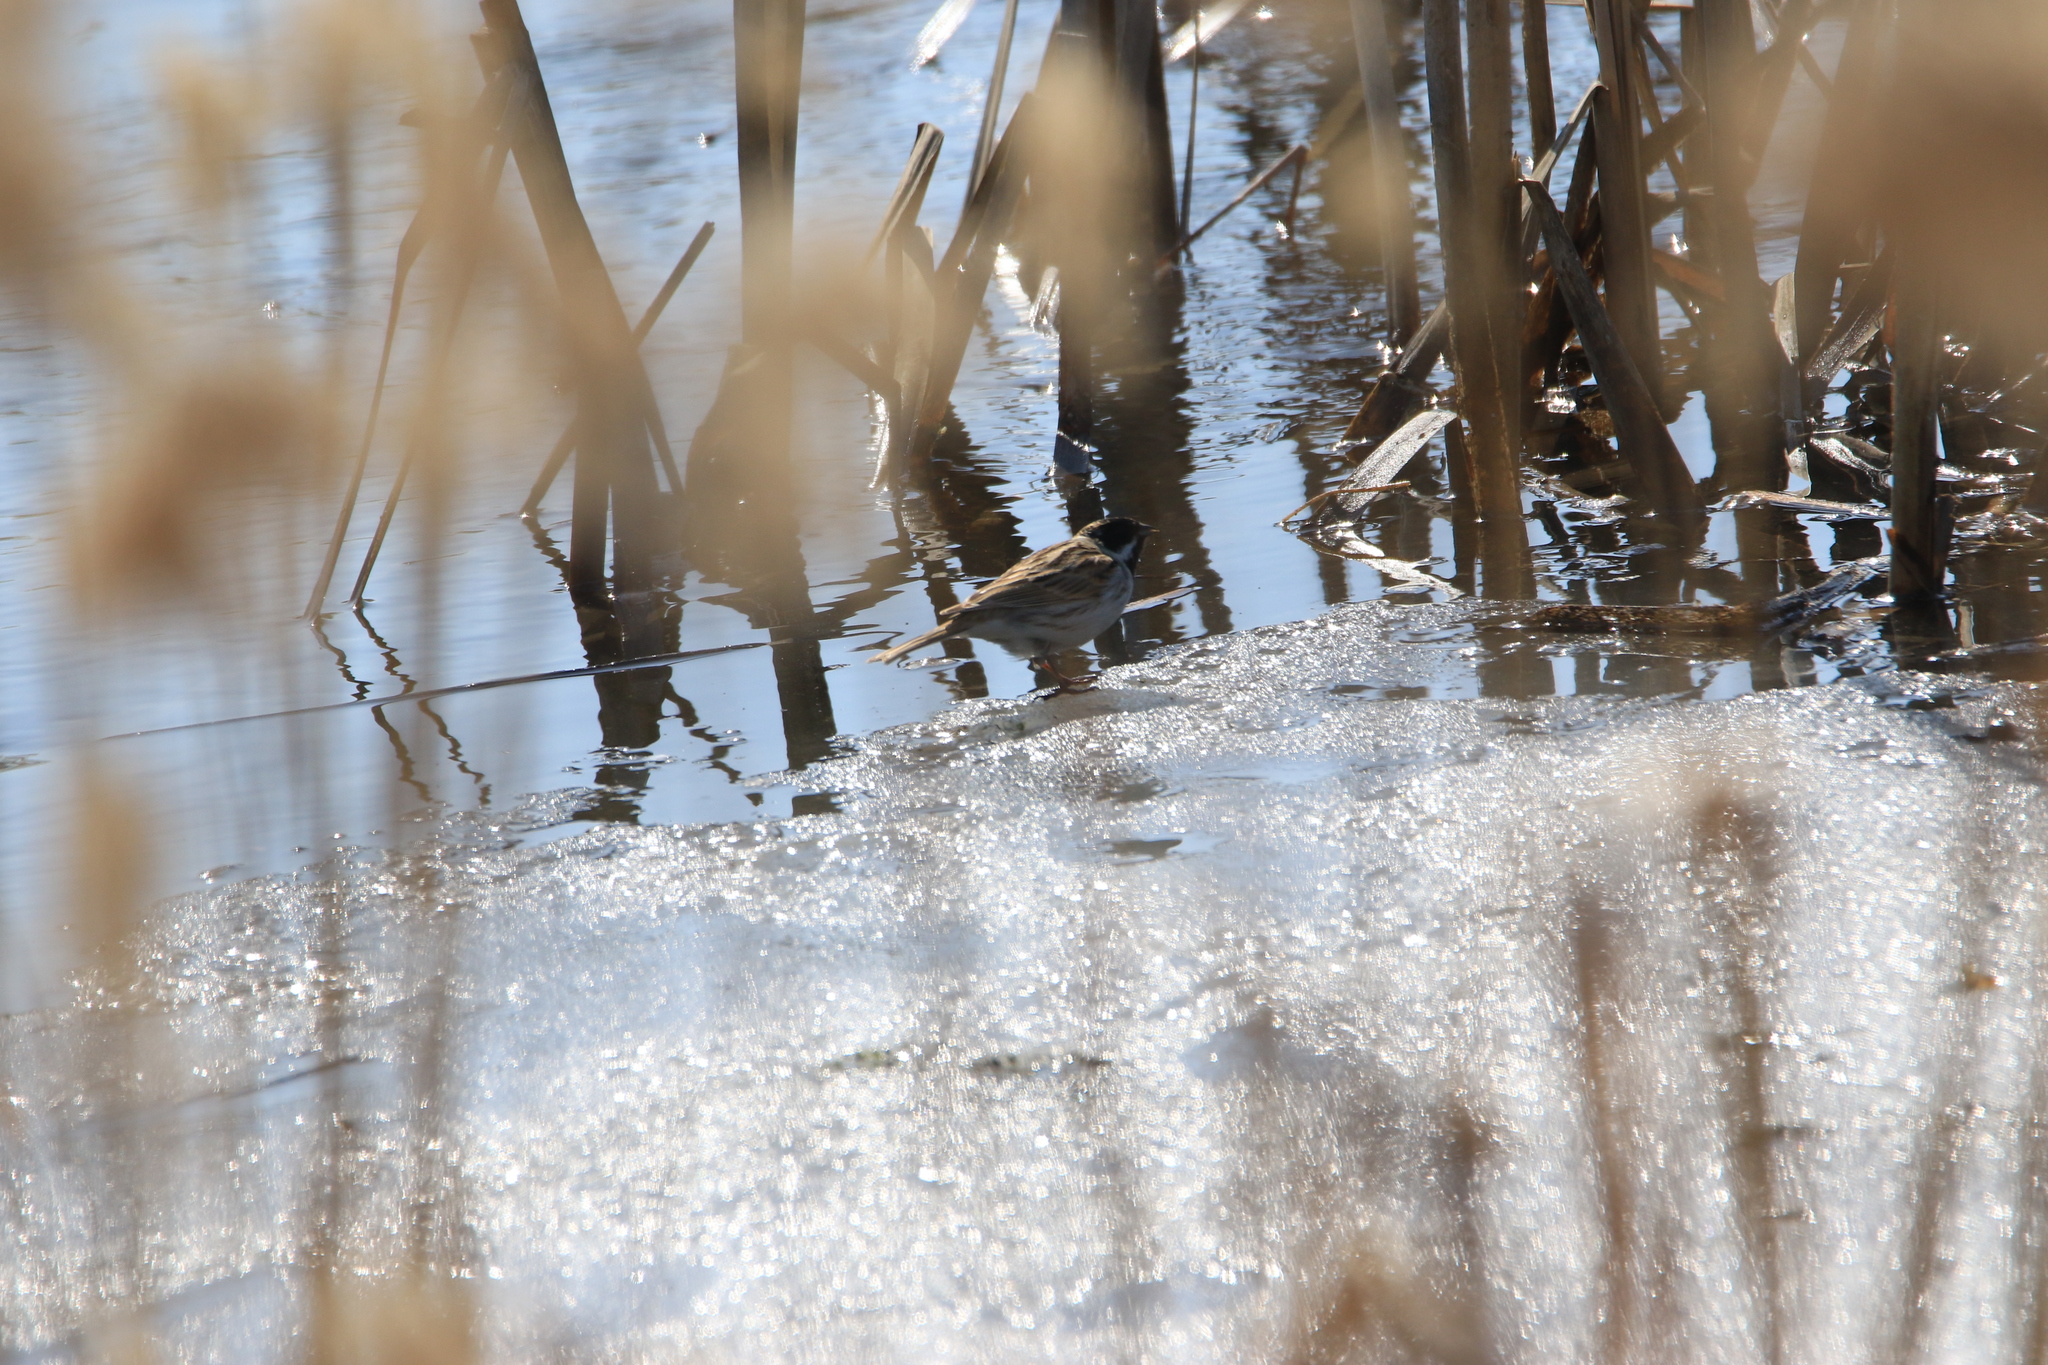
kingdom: Animalia
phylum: Chordata
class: Aves
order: Passeriformes
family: Emberizidae
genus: Emberiza
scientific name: Emberiza schoeniclus
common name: Reed bunting
